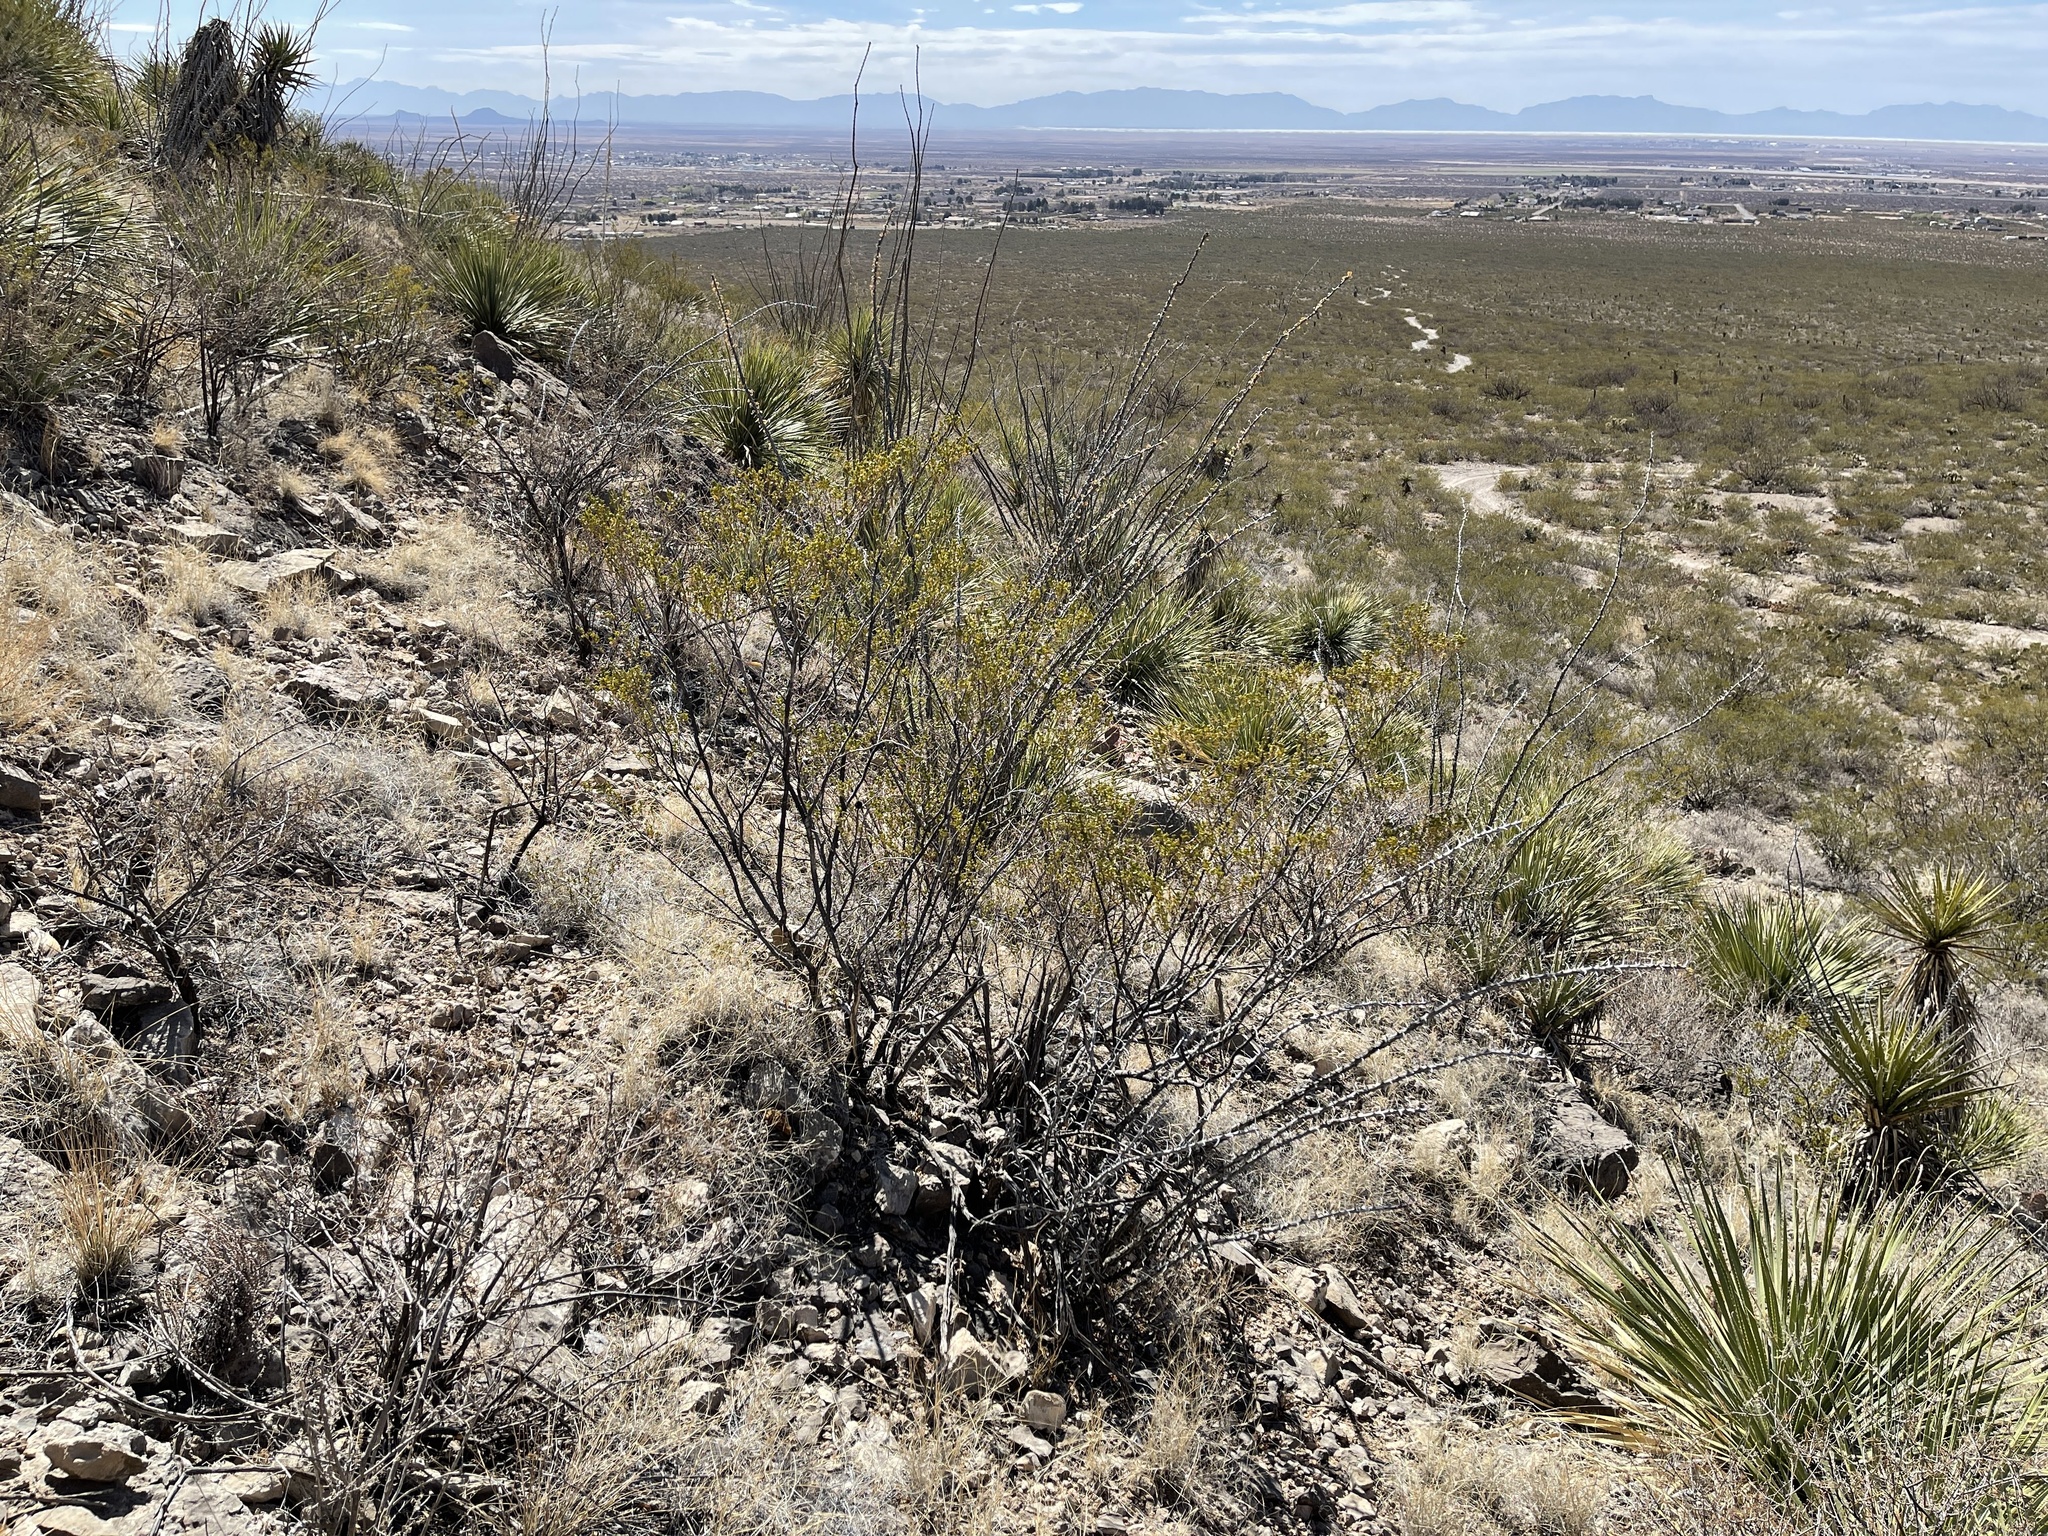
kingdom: Plantae
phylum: Tracheophyta
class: Magnoliopsida
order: Zygophyllales
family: Zygophyllaceae
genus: Larrea
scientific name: Larrea tridentata
